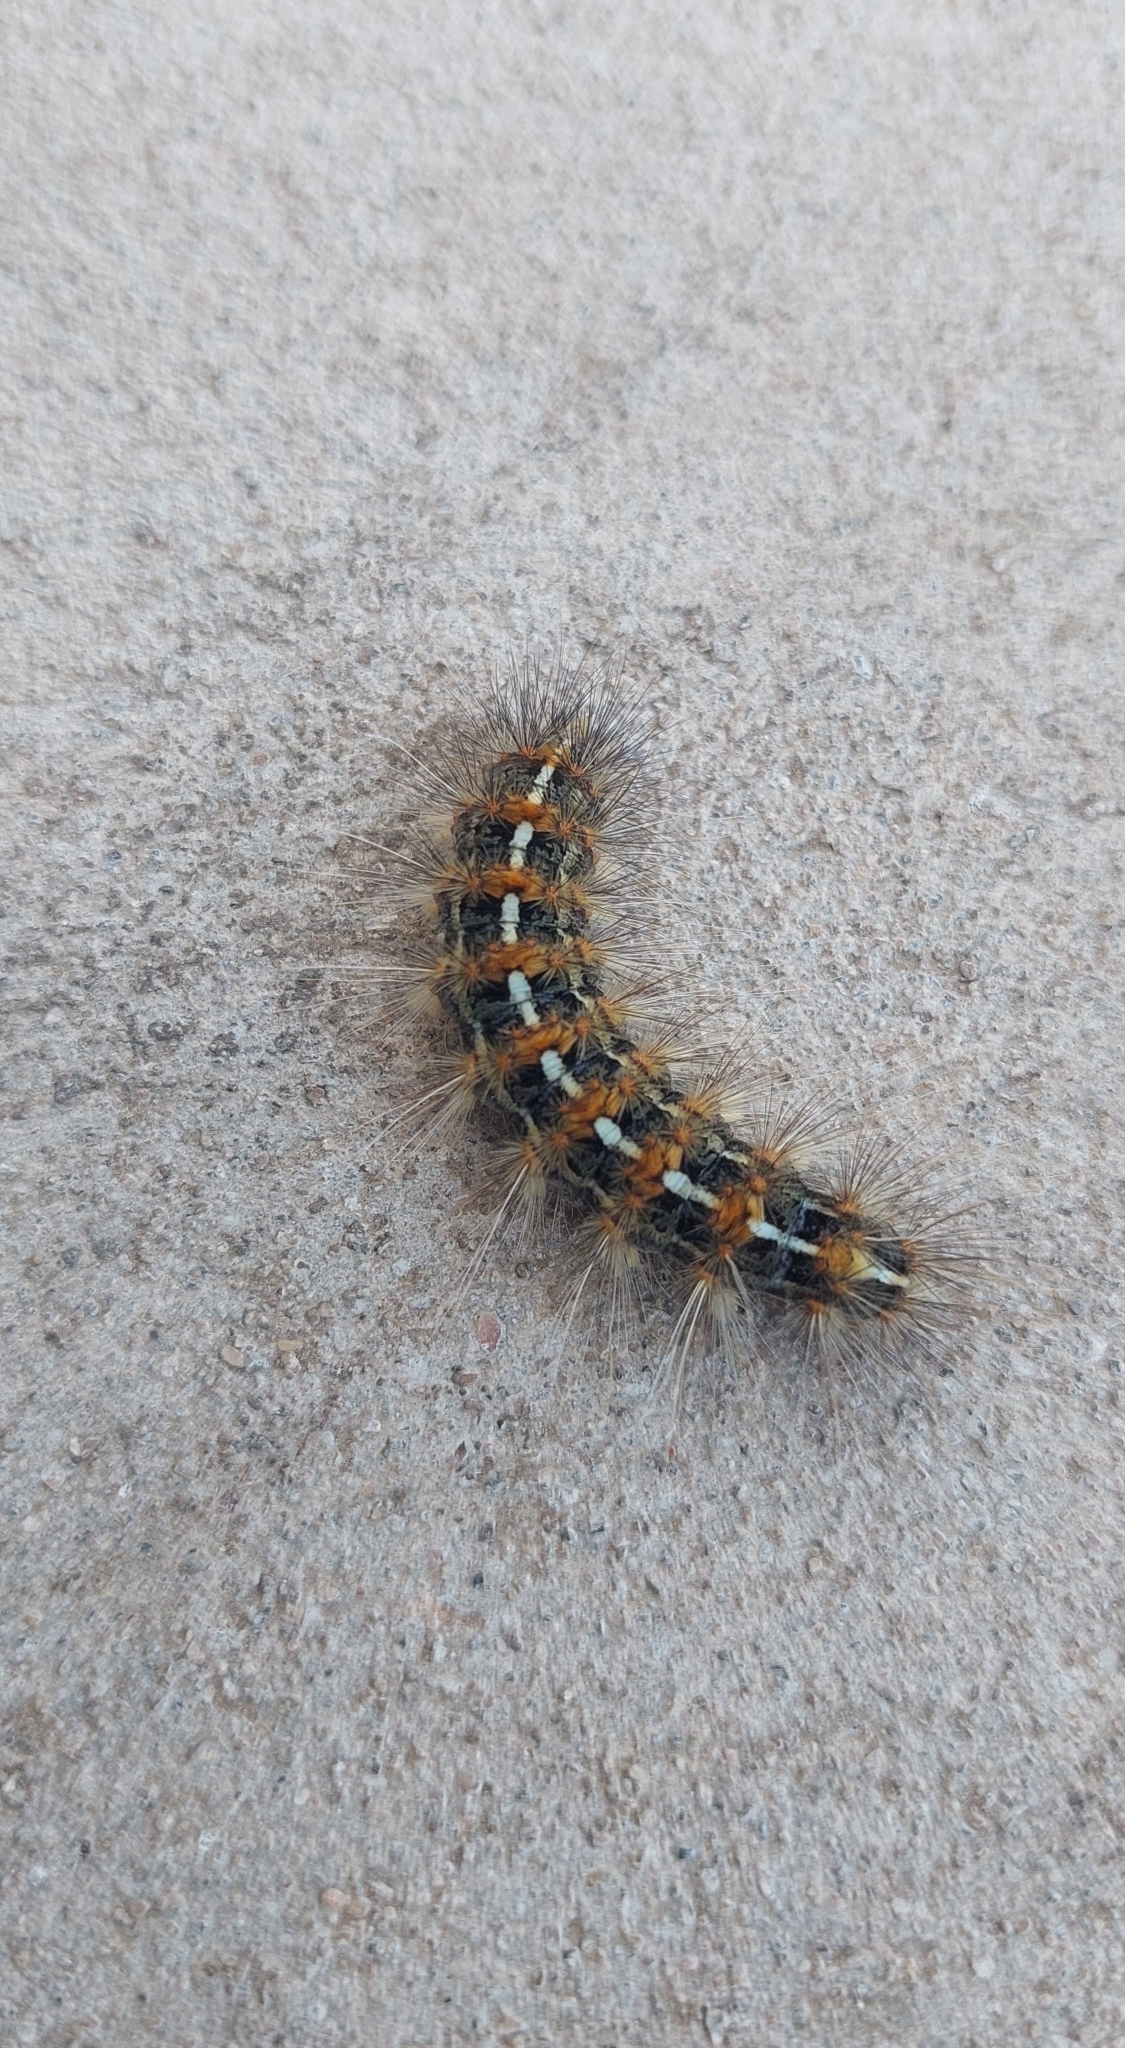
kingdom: Animalia
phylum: Arthropoda
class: Insecta
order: Lepidoptera
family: Erebidae
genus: Paracles
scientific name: Paracles deserticola
